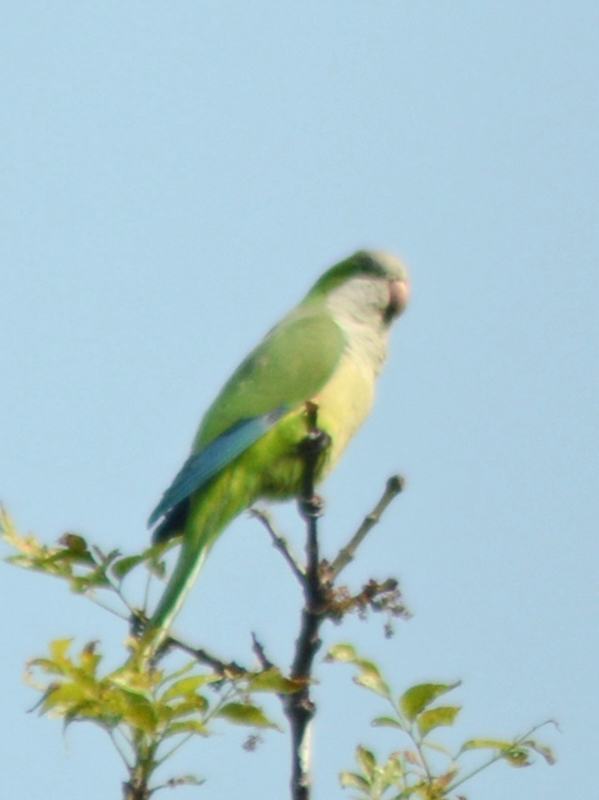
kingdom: Animalia
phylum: Chordata
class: Aves
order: Psittaciformes
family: Psittacidae
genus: Myiopsitta
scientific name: Myiopsitta monachus
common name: Monk parakeet
